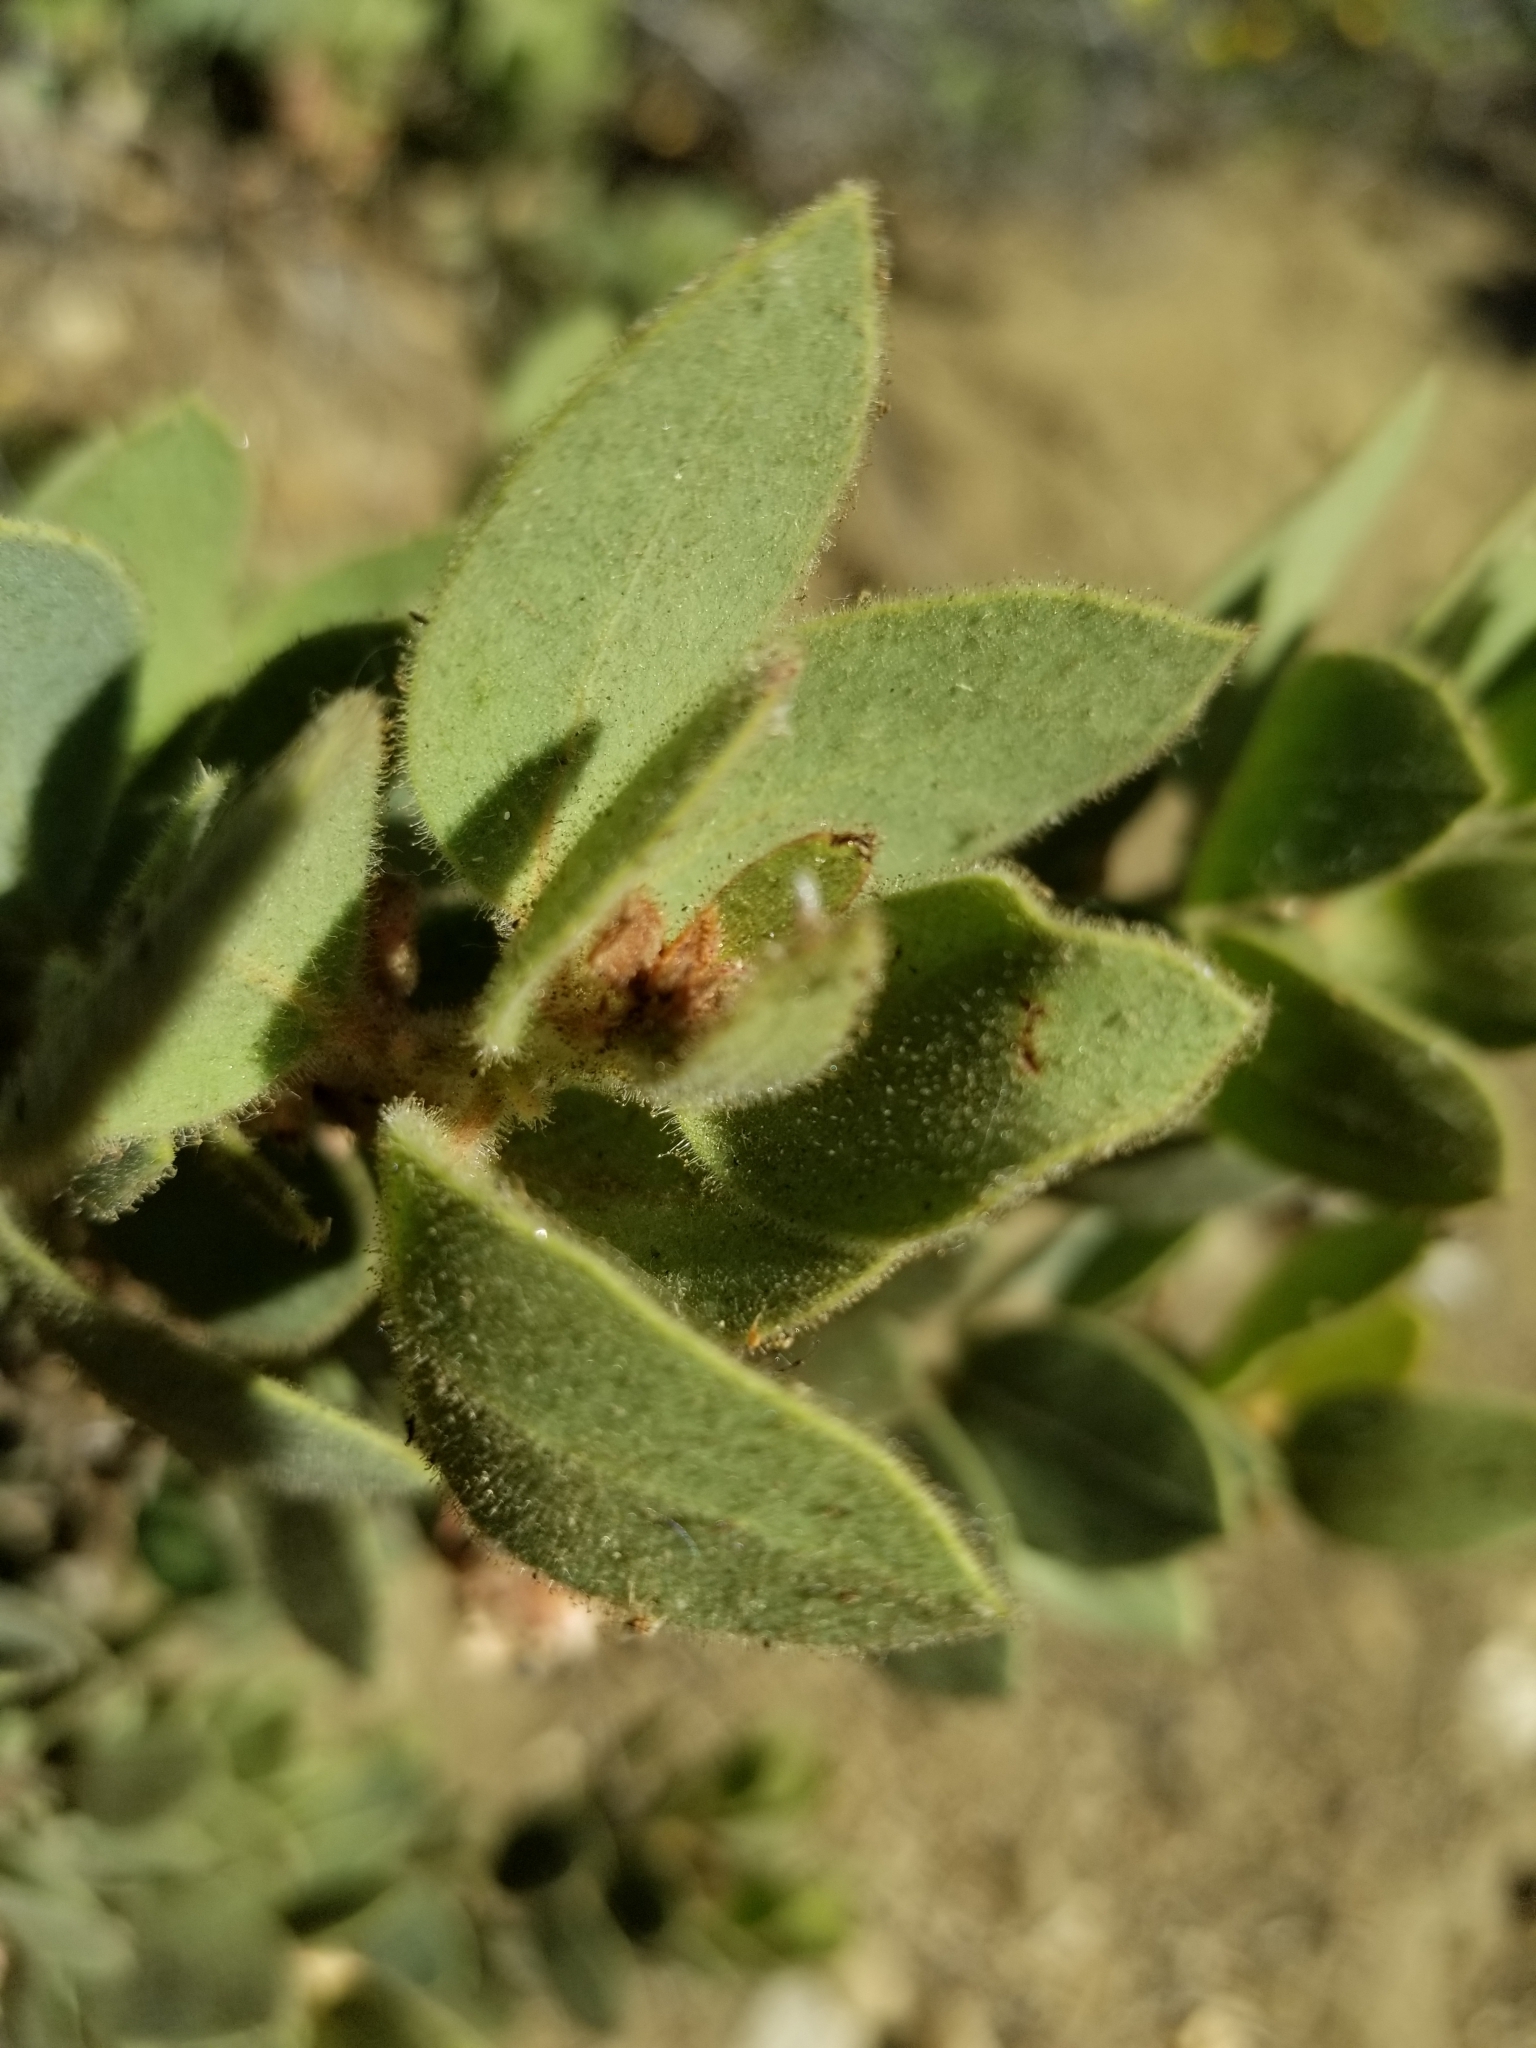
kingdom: Plantae
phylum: Tracheophyta
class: Magnoliopsida
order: Ericales
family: Ericaceae
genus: Arctostaphylos
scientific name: Arctostaphylos pringlei
